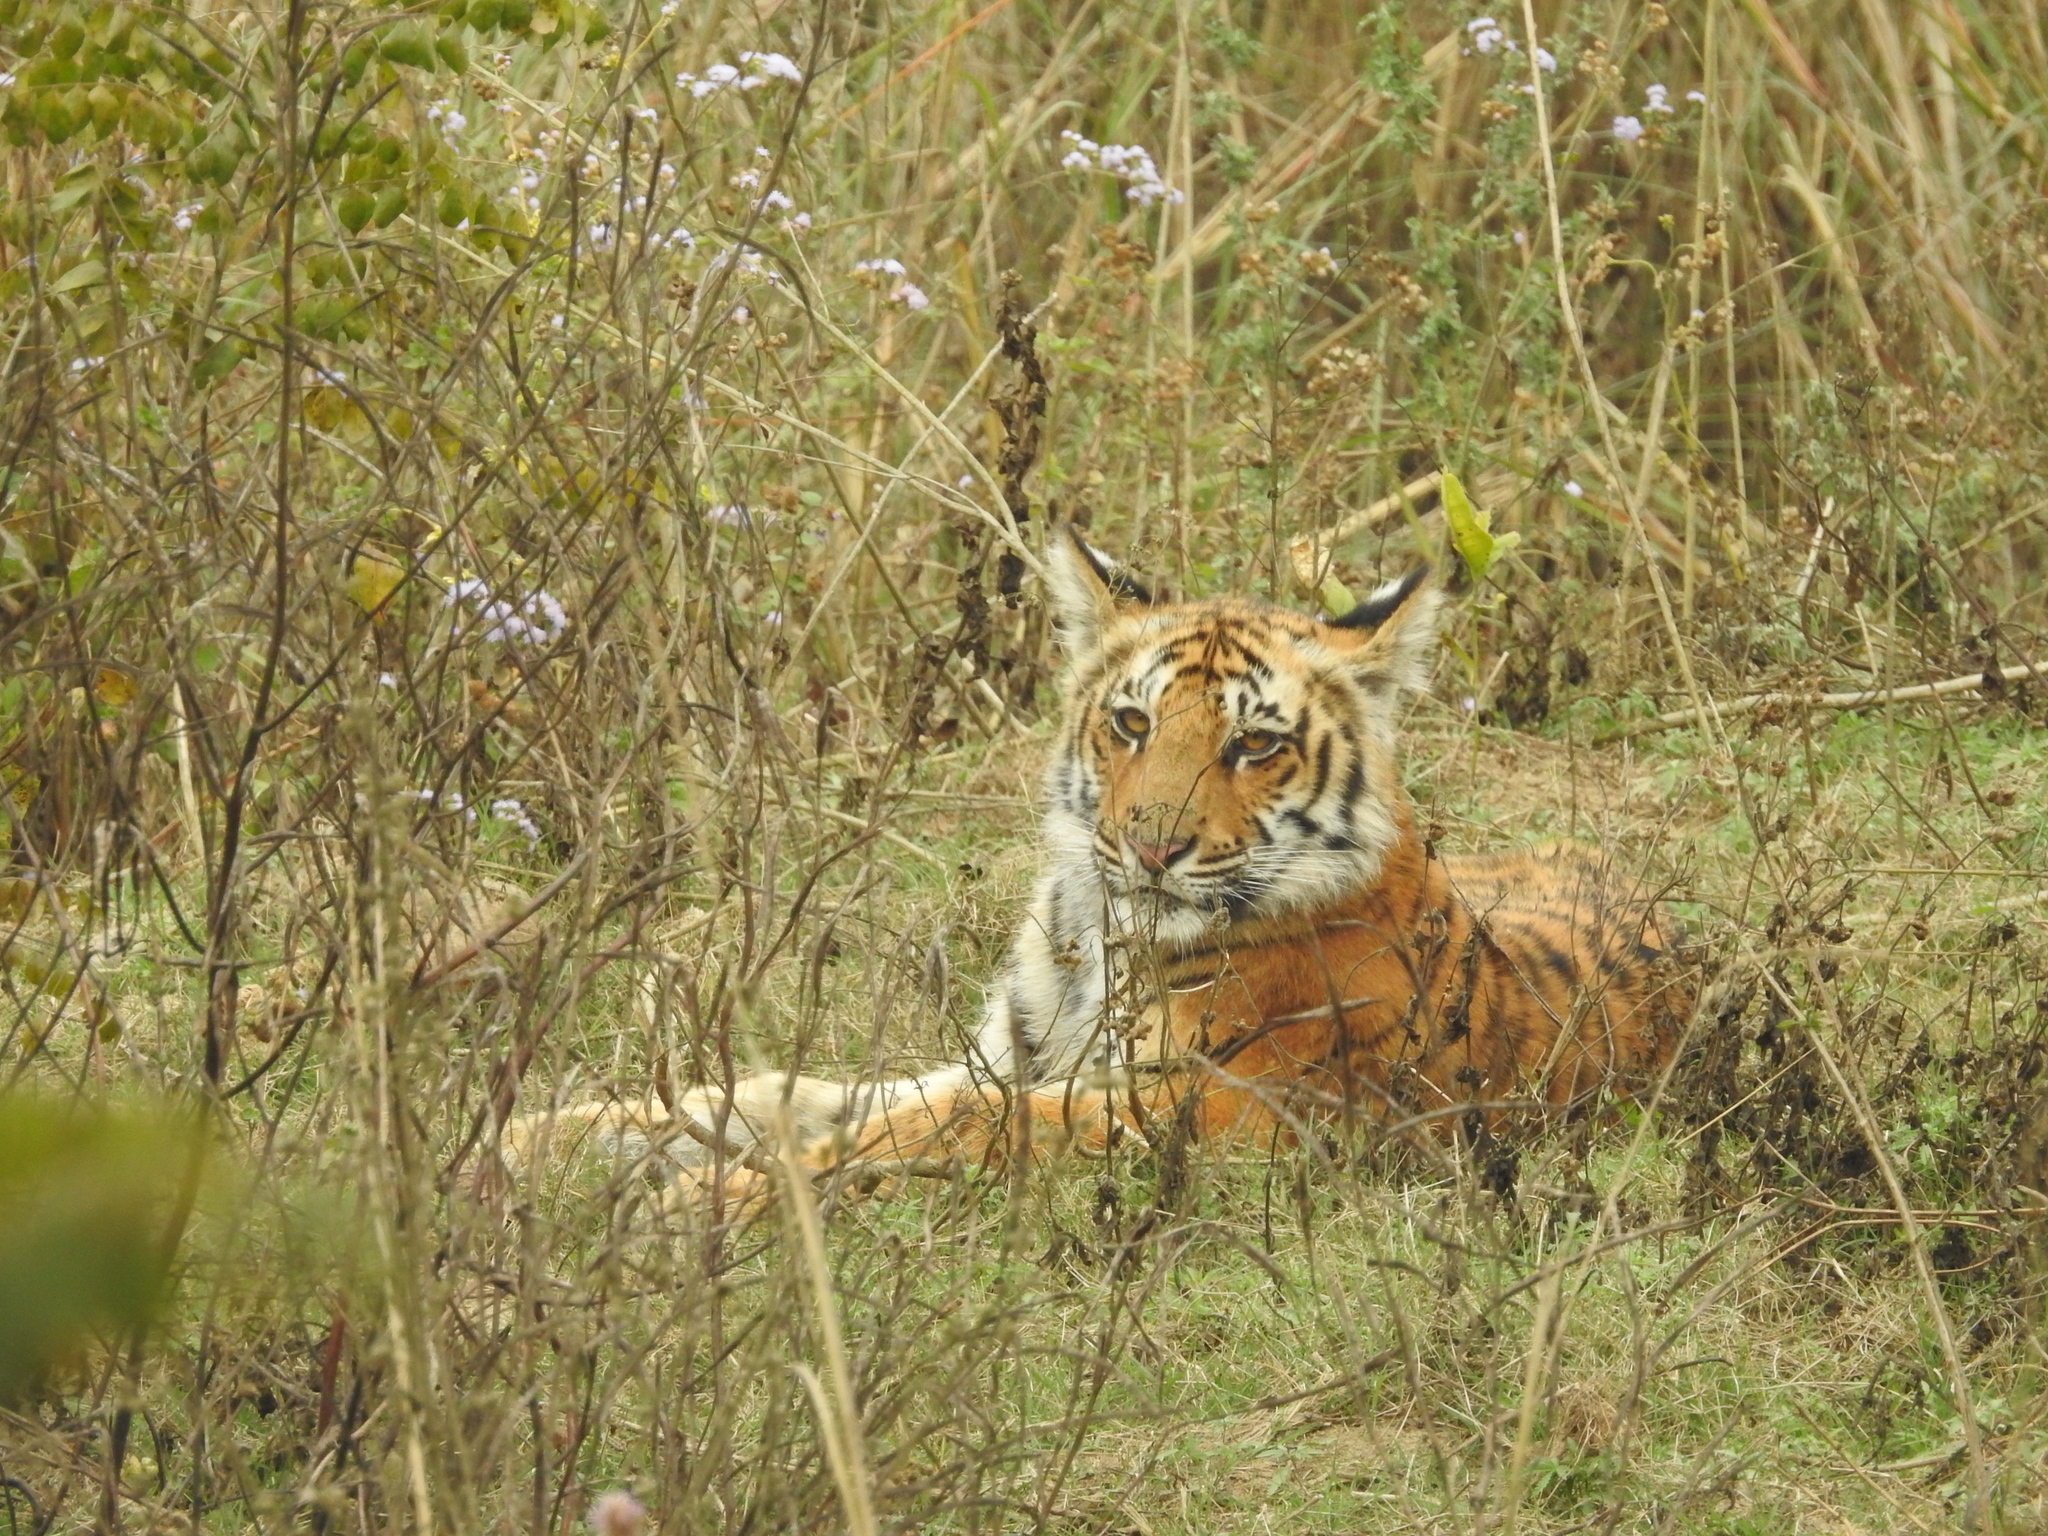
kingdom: Animalia
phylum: Chordata
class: Mammalia
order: Carnivora
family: Felidae
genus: Panthera
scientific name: Panthera tigris
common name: Tiger
